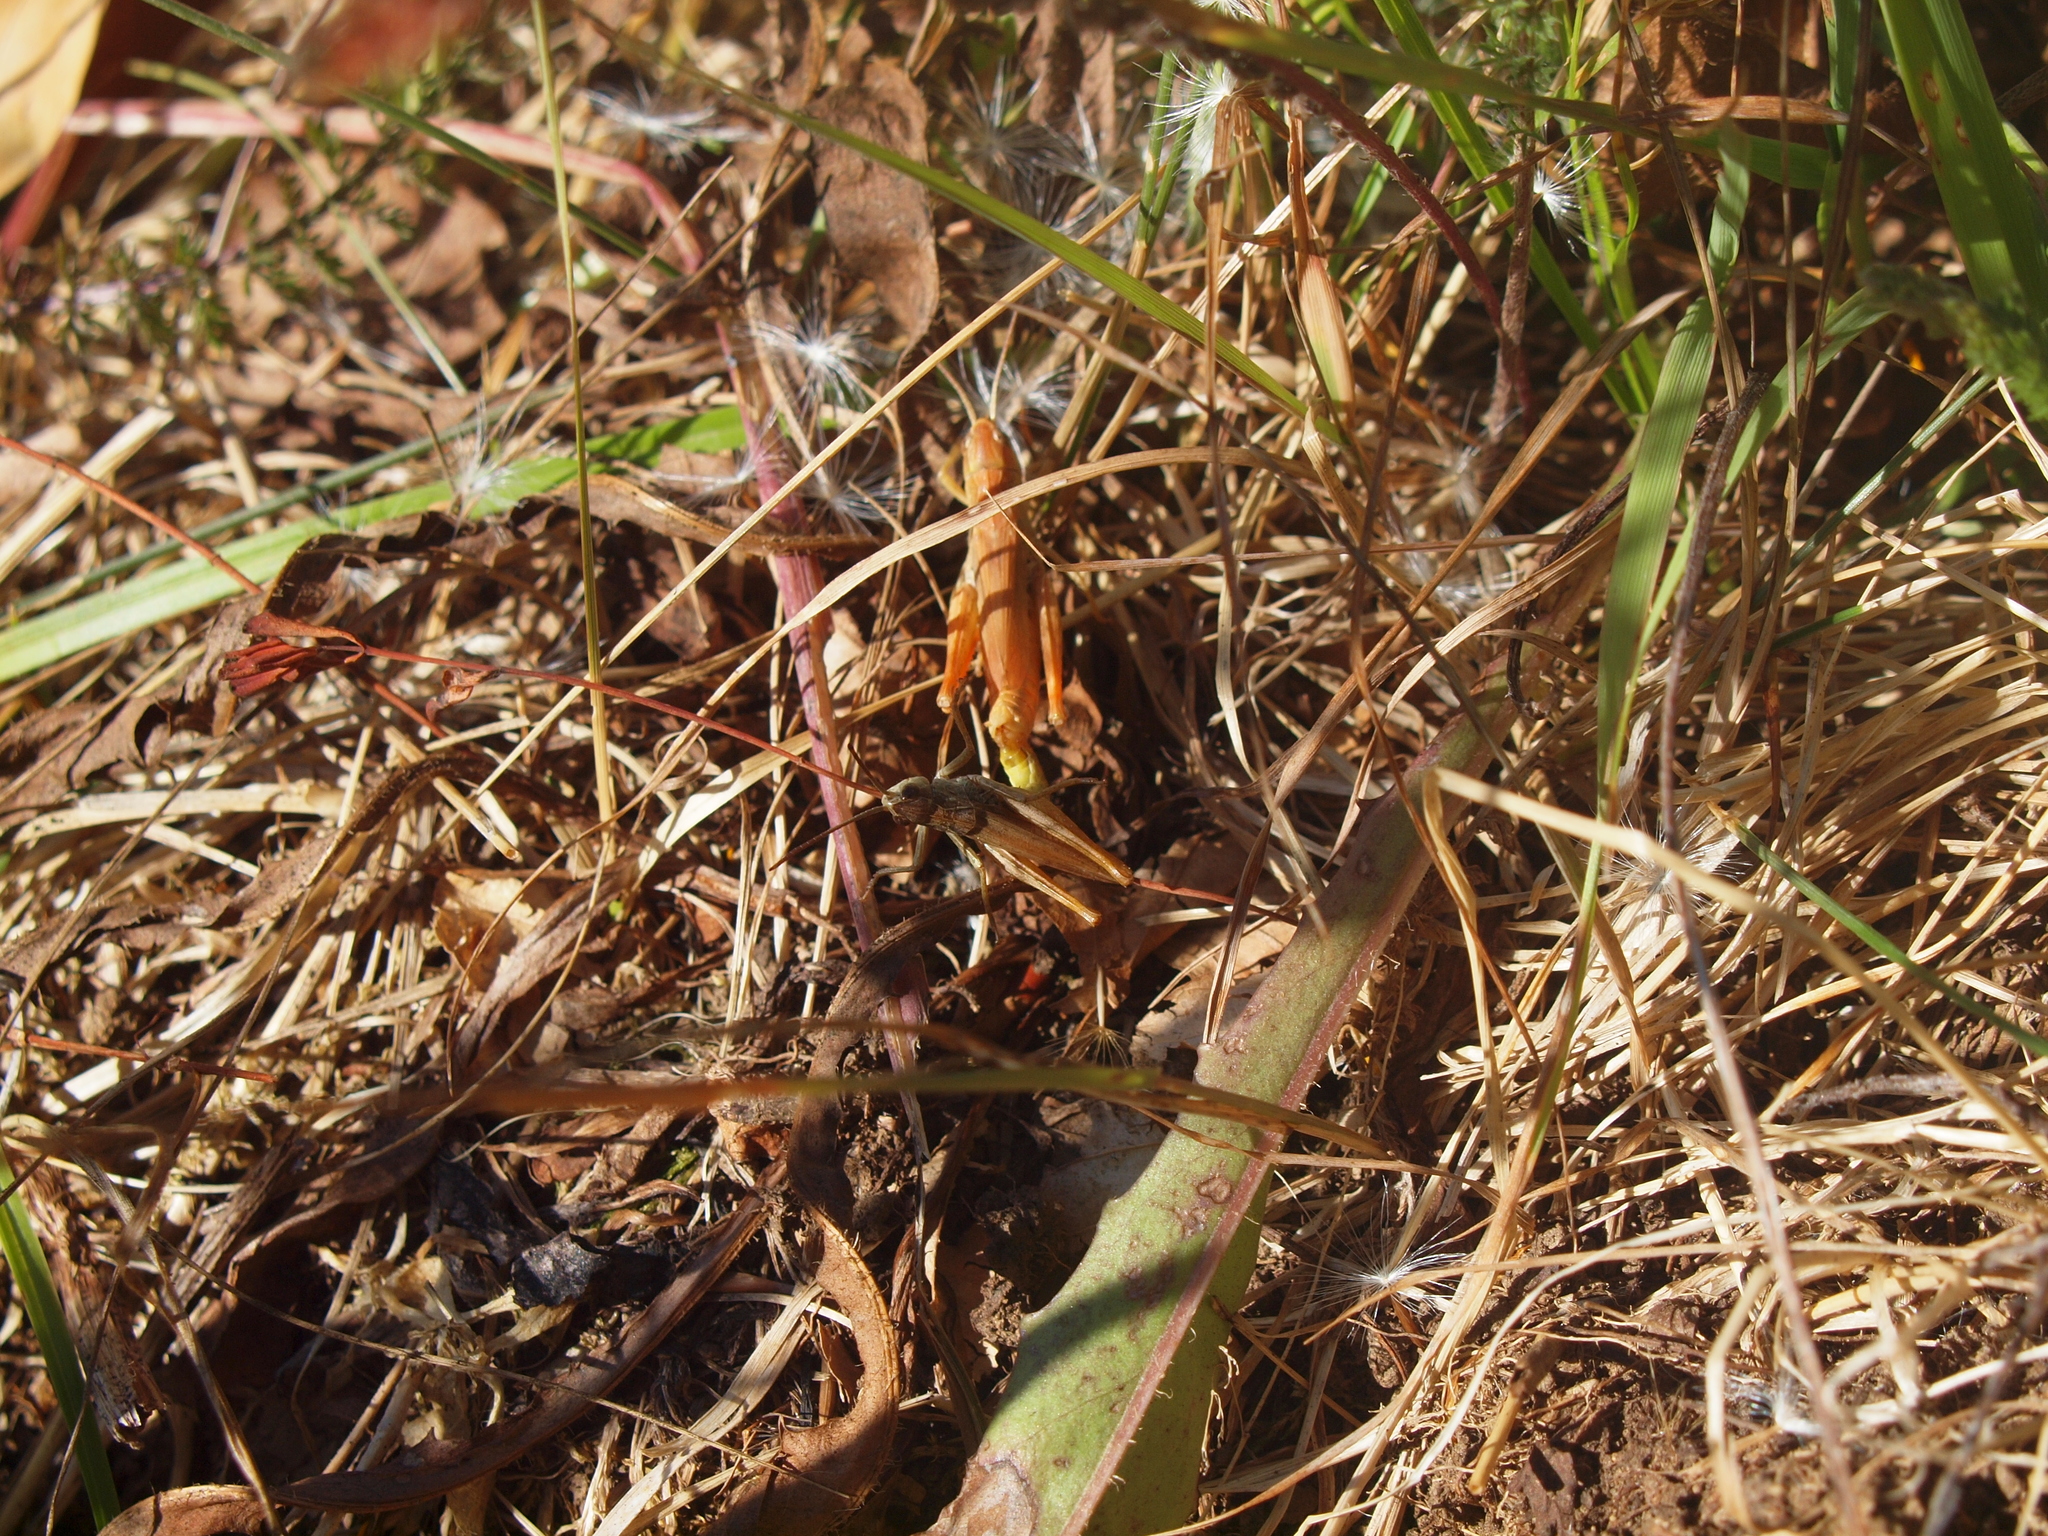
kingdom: Animalia
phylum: Arthropoda
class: Insecta
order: Orthoptera
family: Acrididae
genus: Chorthippus
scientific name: Chorthippus apricarius
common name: Upland field grasshopper
